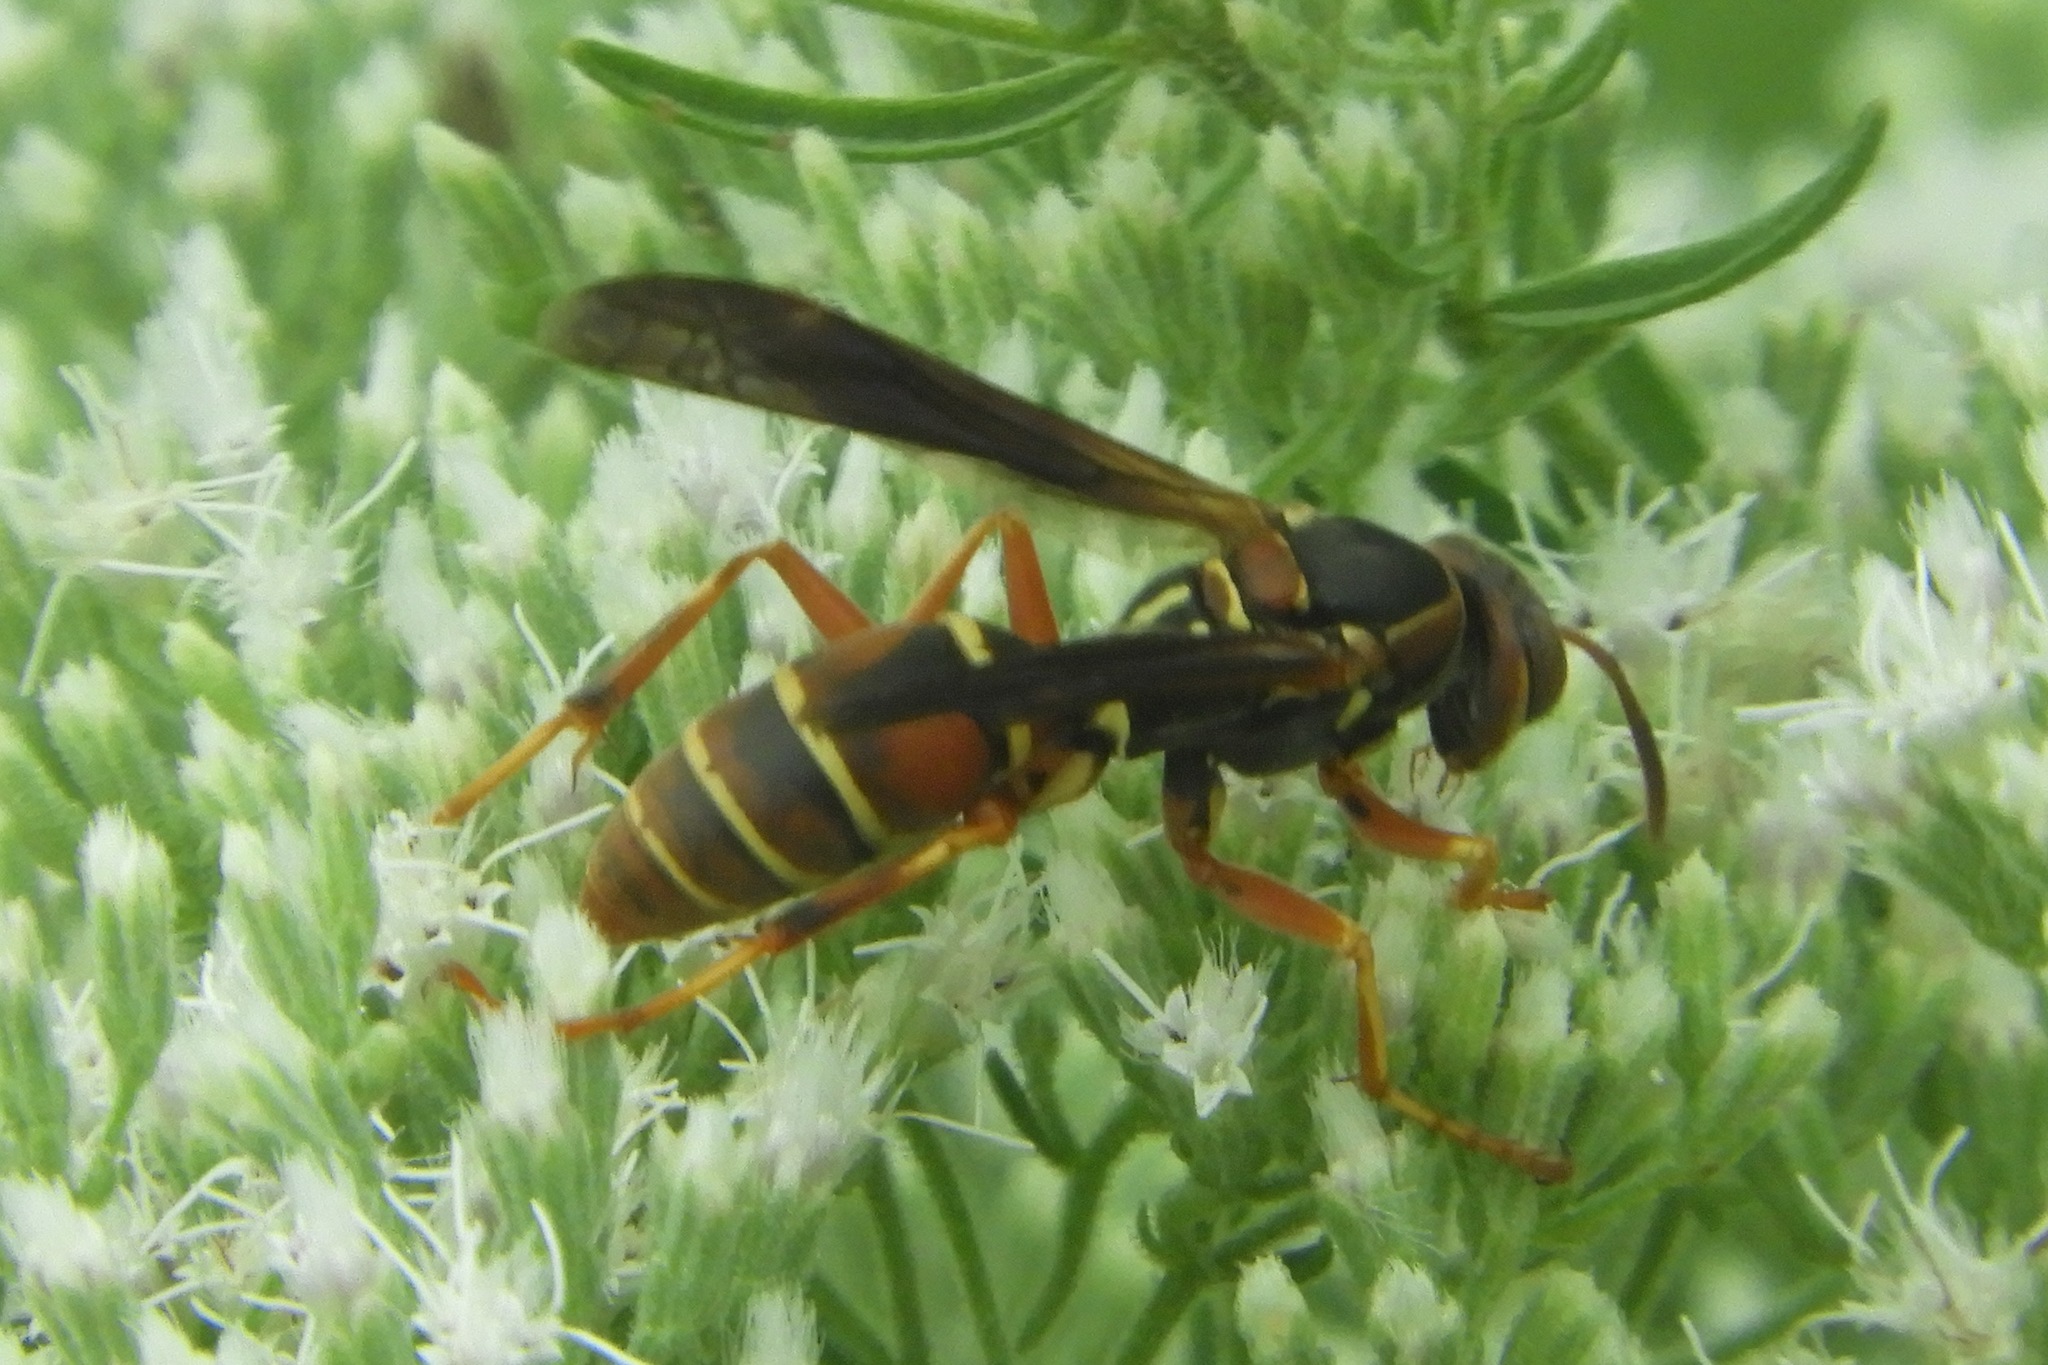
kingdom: Animalia
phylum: Arthropoda
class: Insecta
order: Hymenoptera
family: Eumenidae
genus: Polistes
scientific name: Polistes fuscatus
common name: Dark paper wasp
